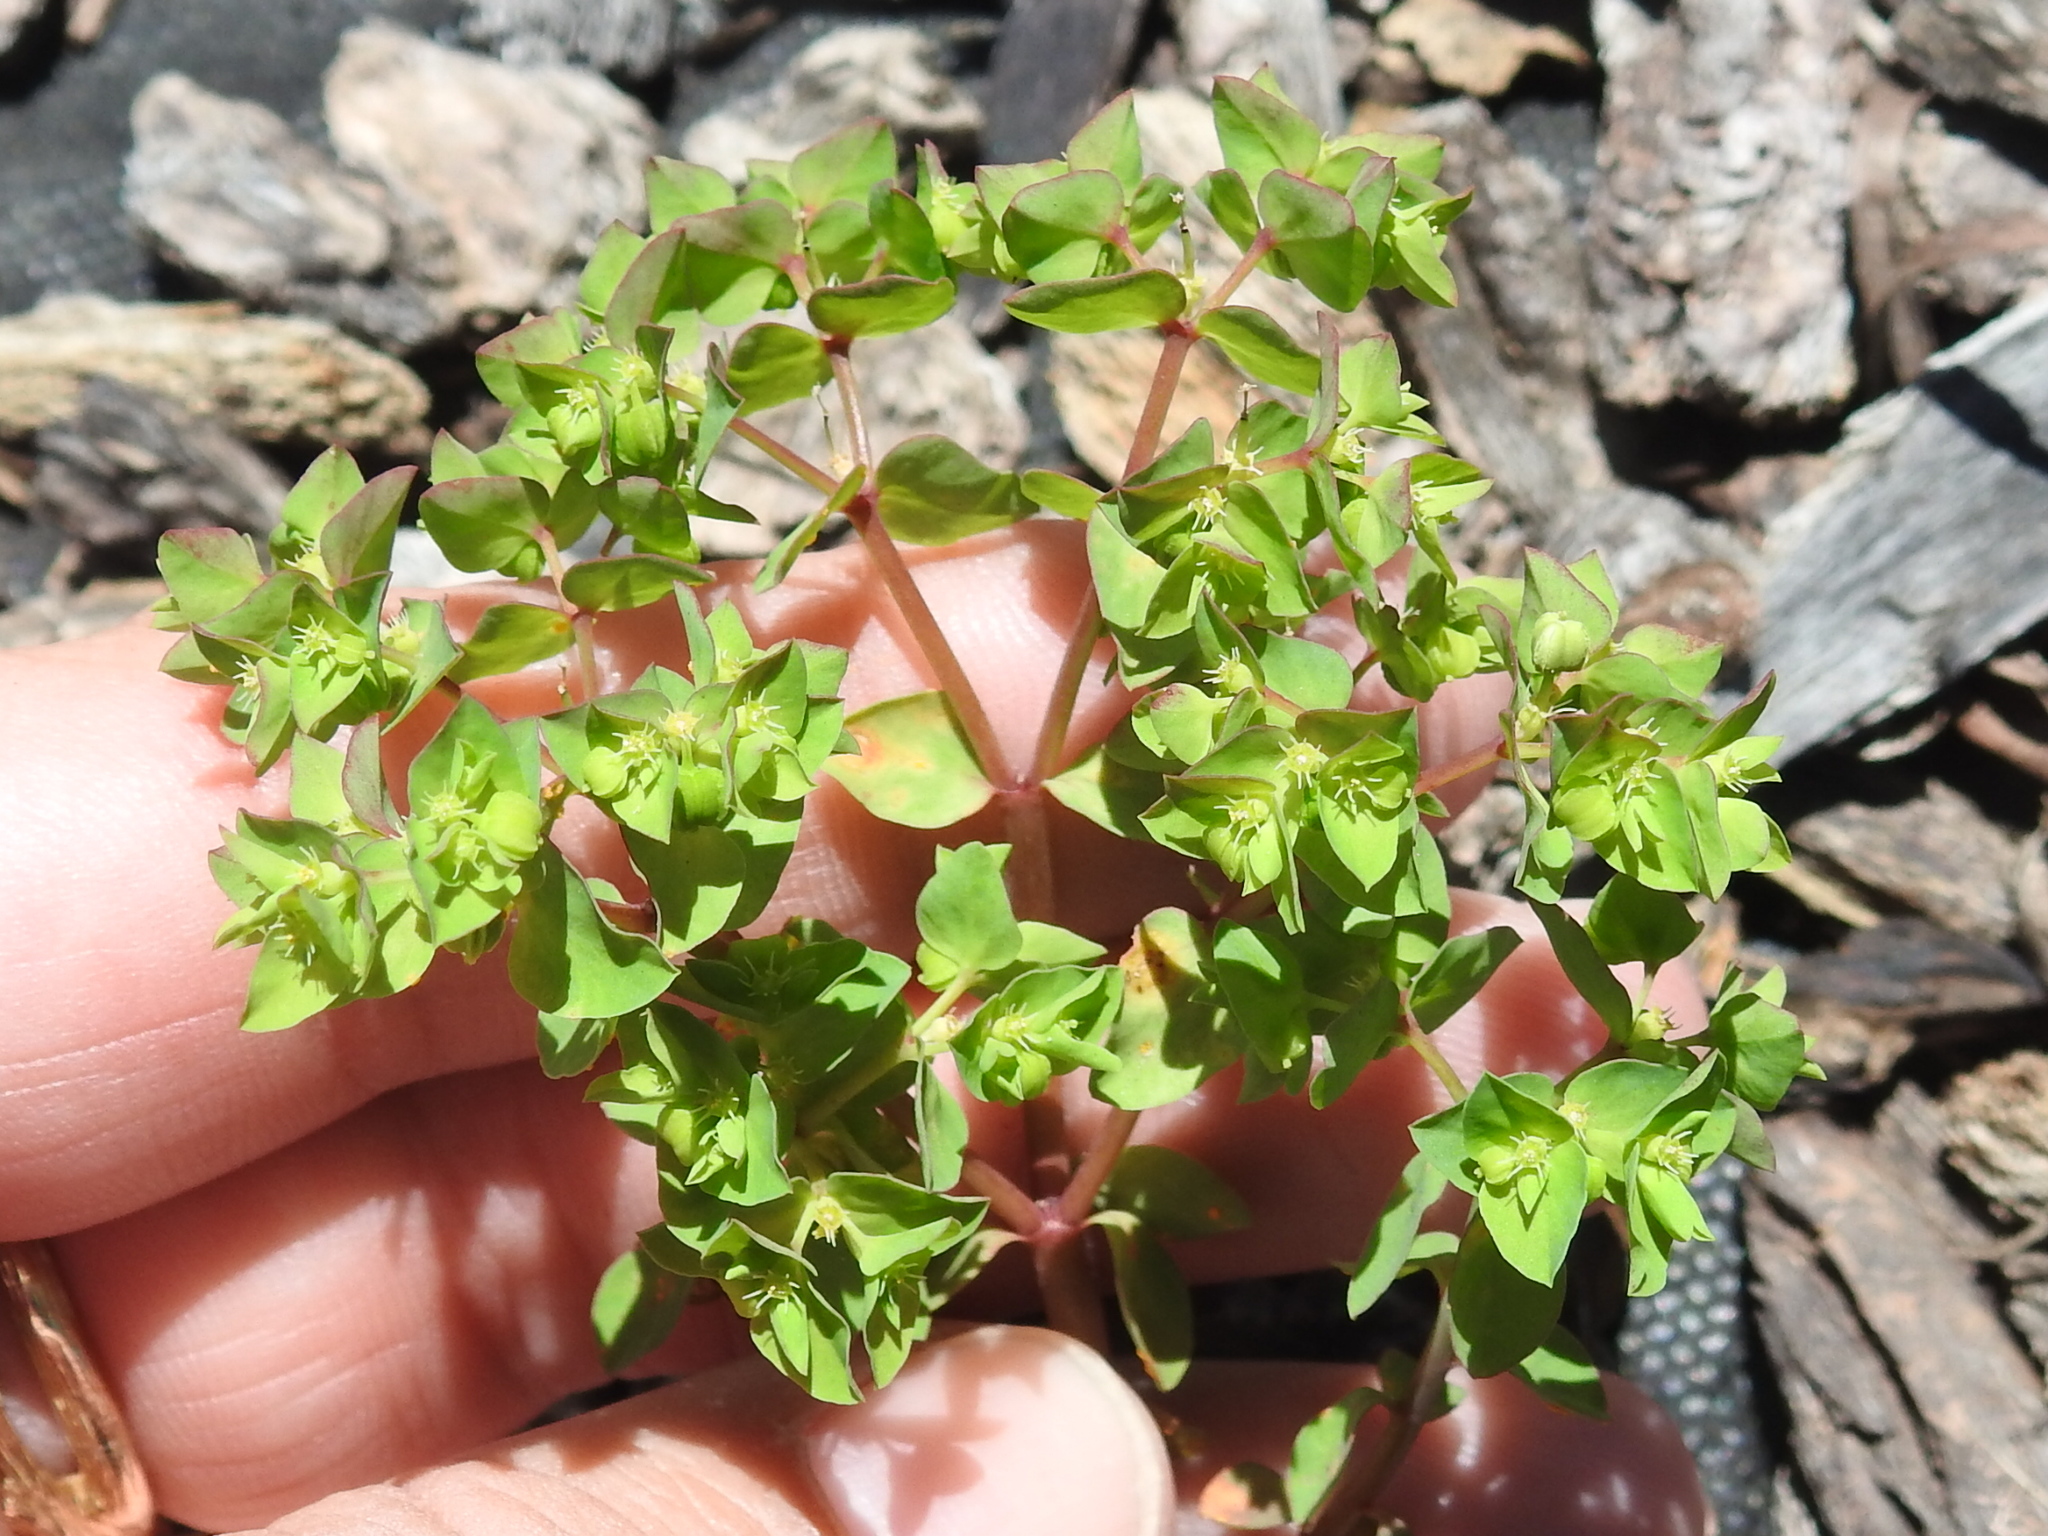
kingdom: Plantae
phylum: Tracheophyta
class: Magnoliopsida
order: Malpighiales
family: Euphorbiaceae
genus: Euphorbia
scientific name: Euphorbia peplus
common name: Petty spurge
